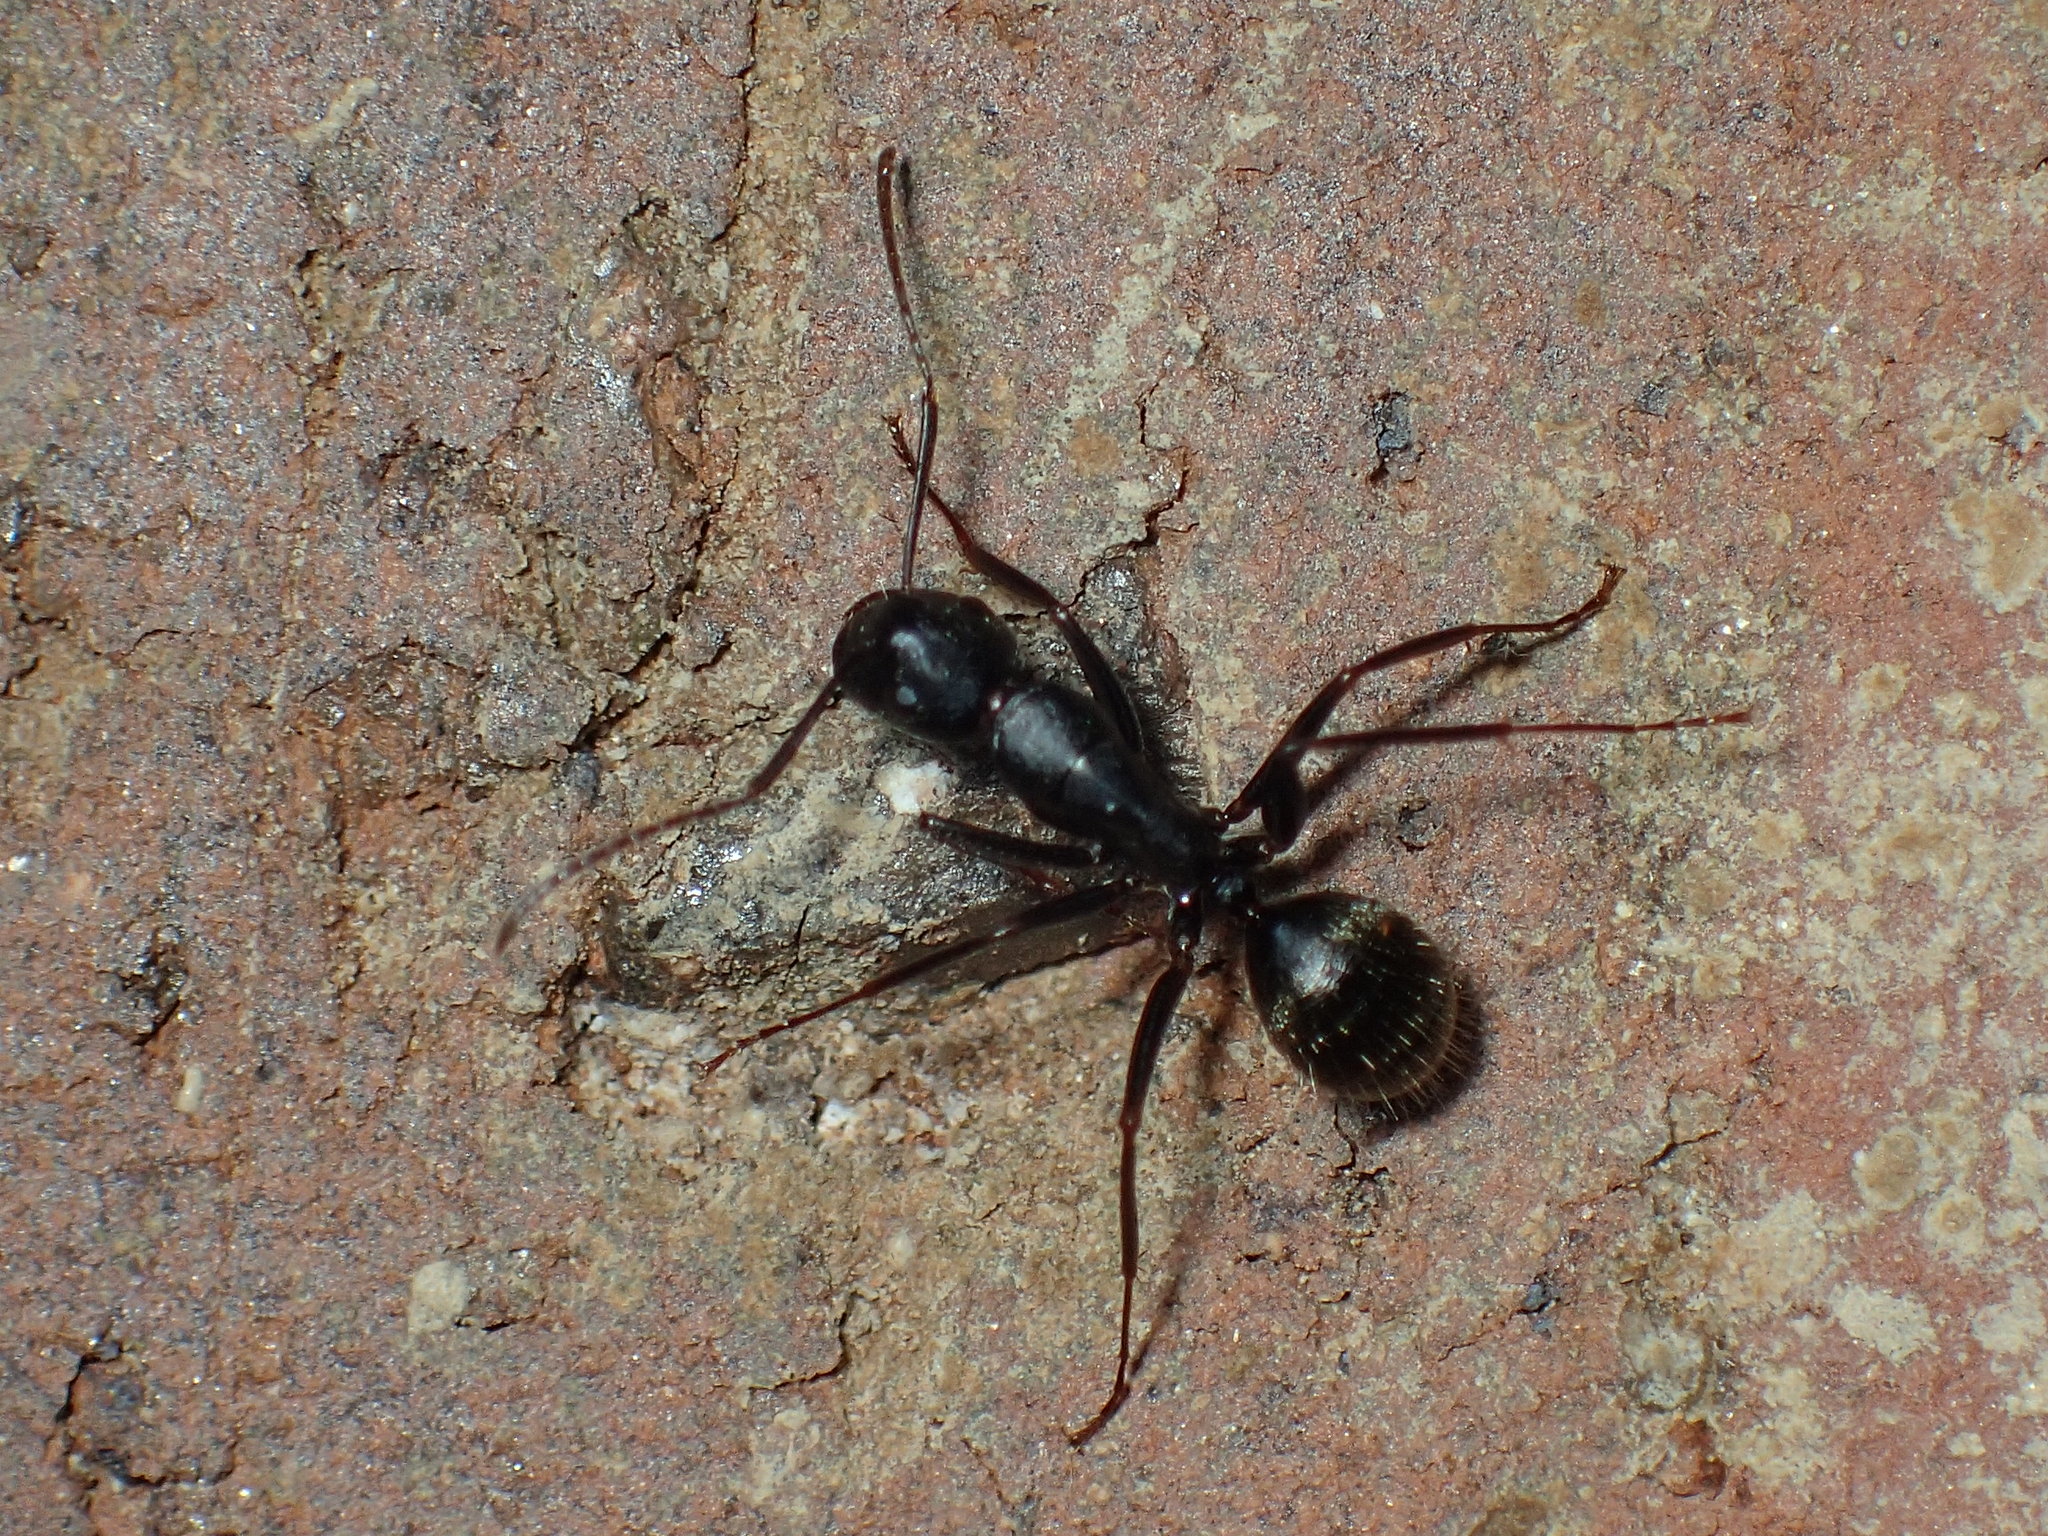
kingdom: Animalia
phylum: Arthropoda
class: Insecta
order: Hymenoptera
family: Formicidae
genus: Camponotus
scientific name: Camponotus pennsylvanicus
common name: Black carpenter ant
